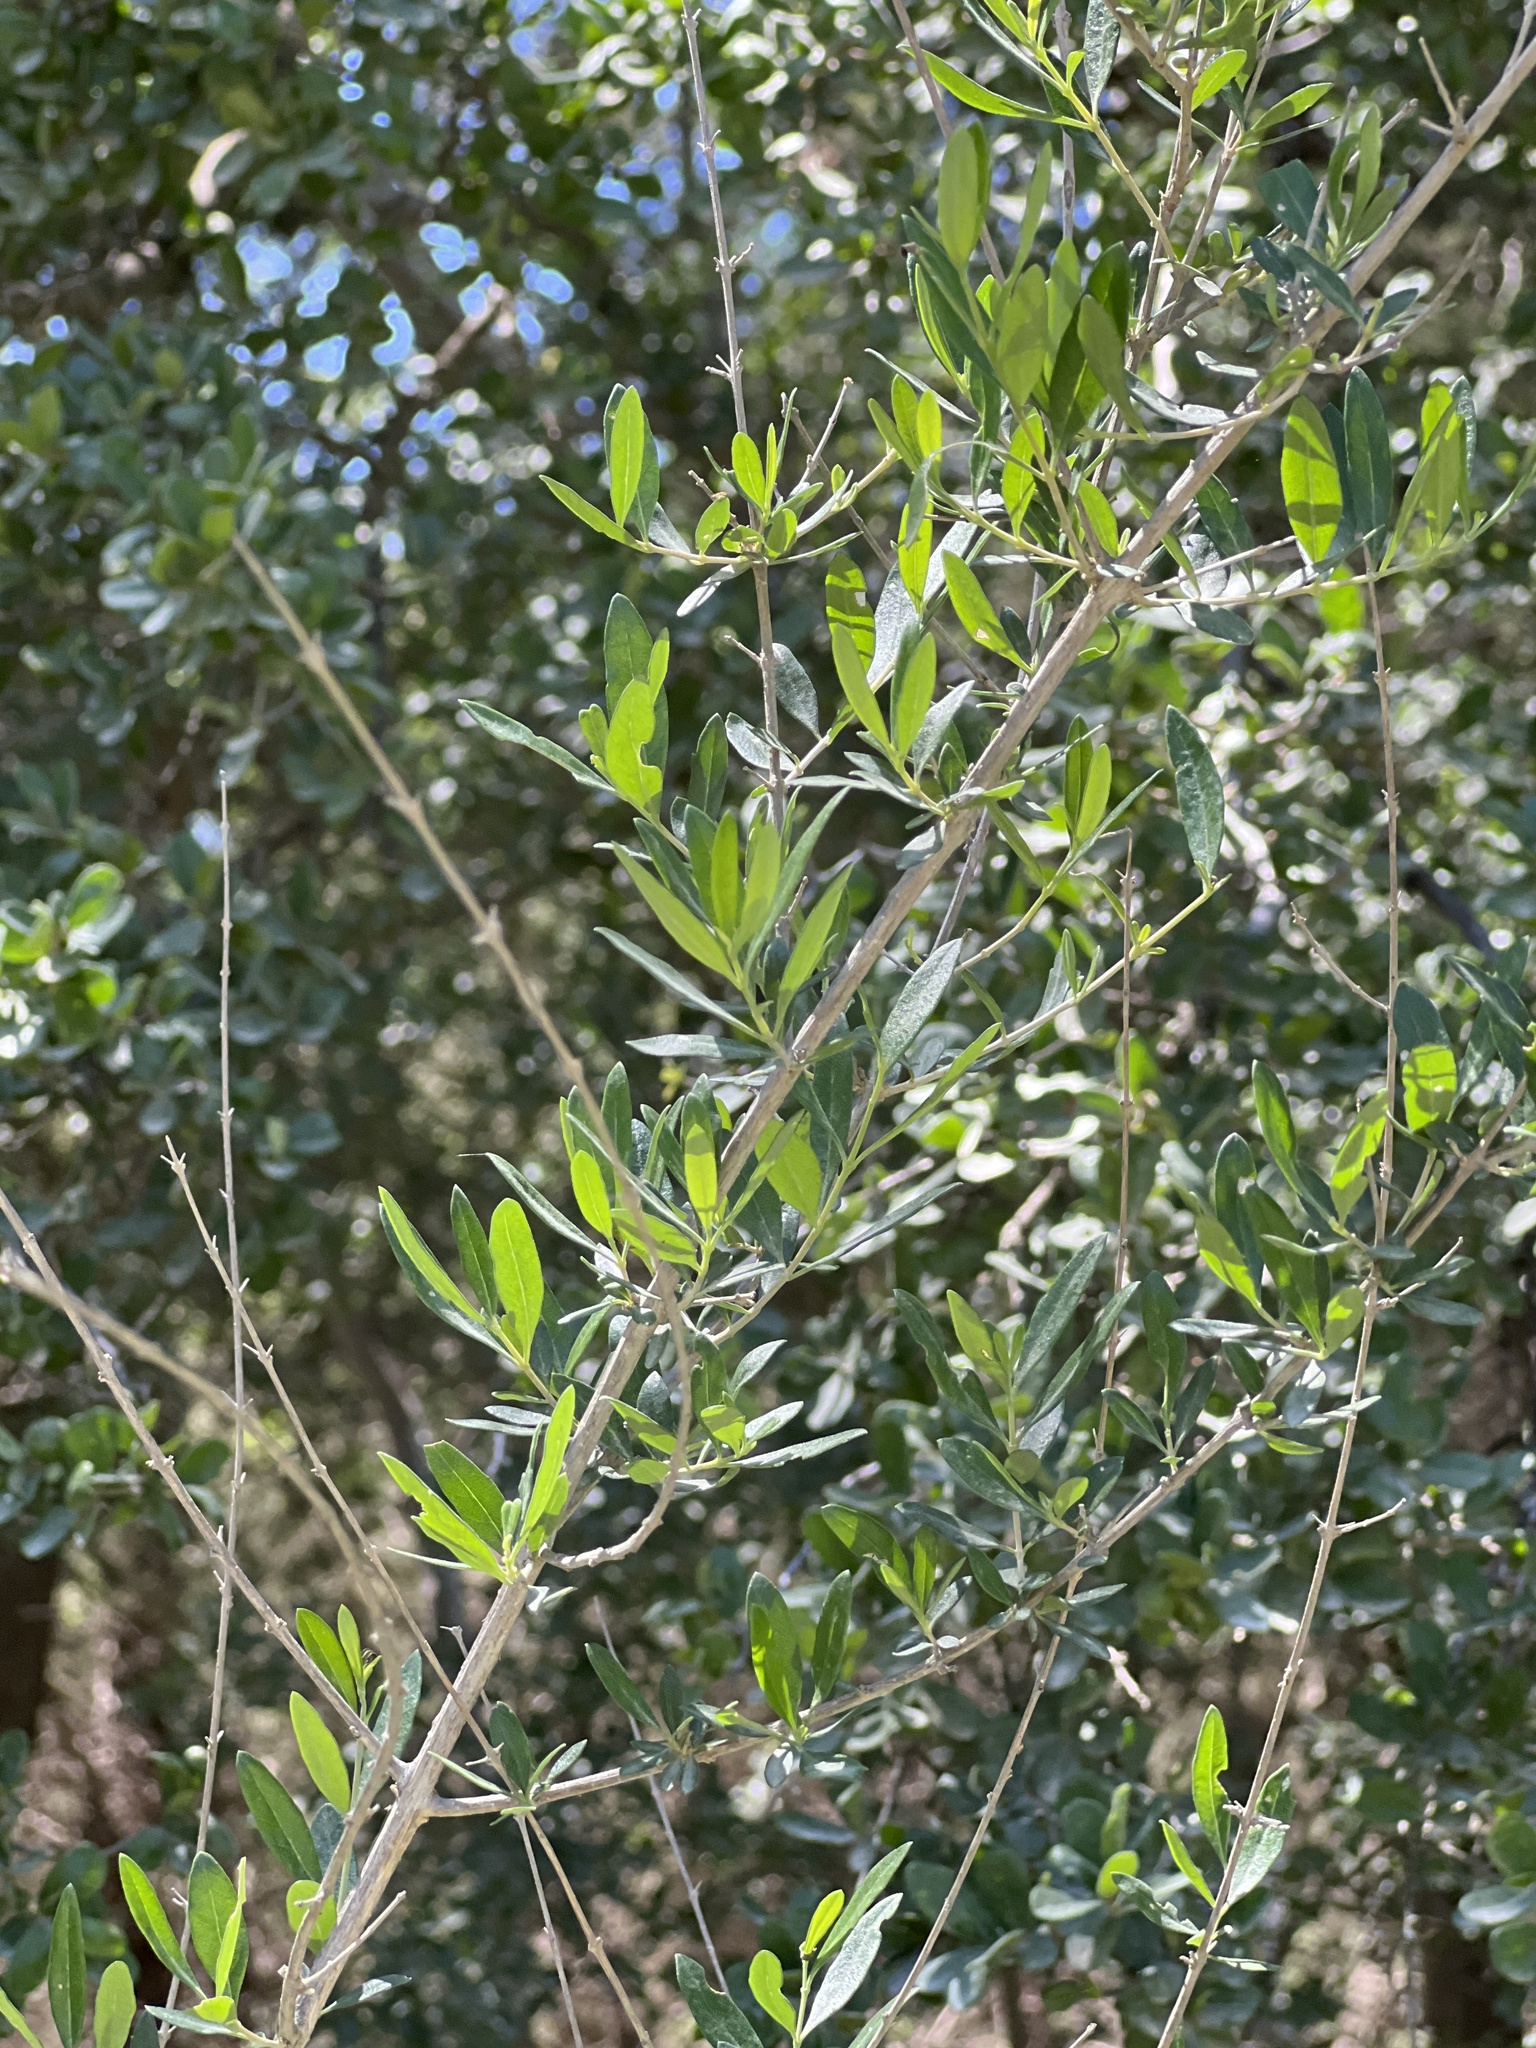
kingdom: Plantae
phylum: Tracheophyta
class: Magnoliopsida
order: Lamiales
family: Verbenaceae
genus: Aloysia
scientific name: Aloysia gratissima
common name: Common bee-brush
